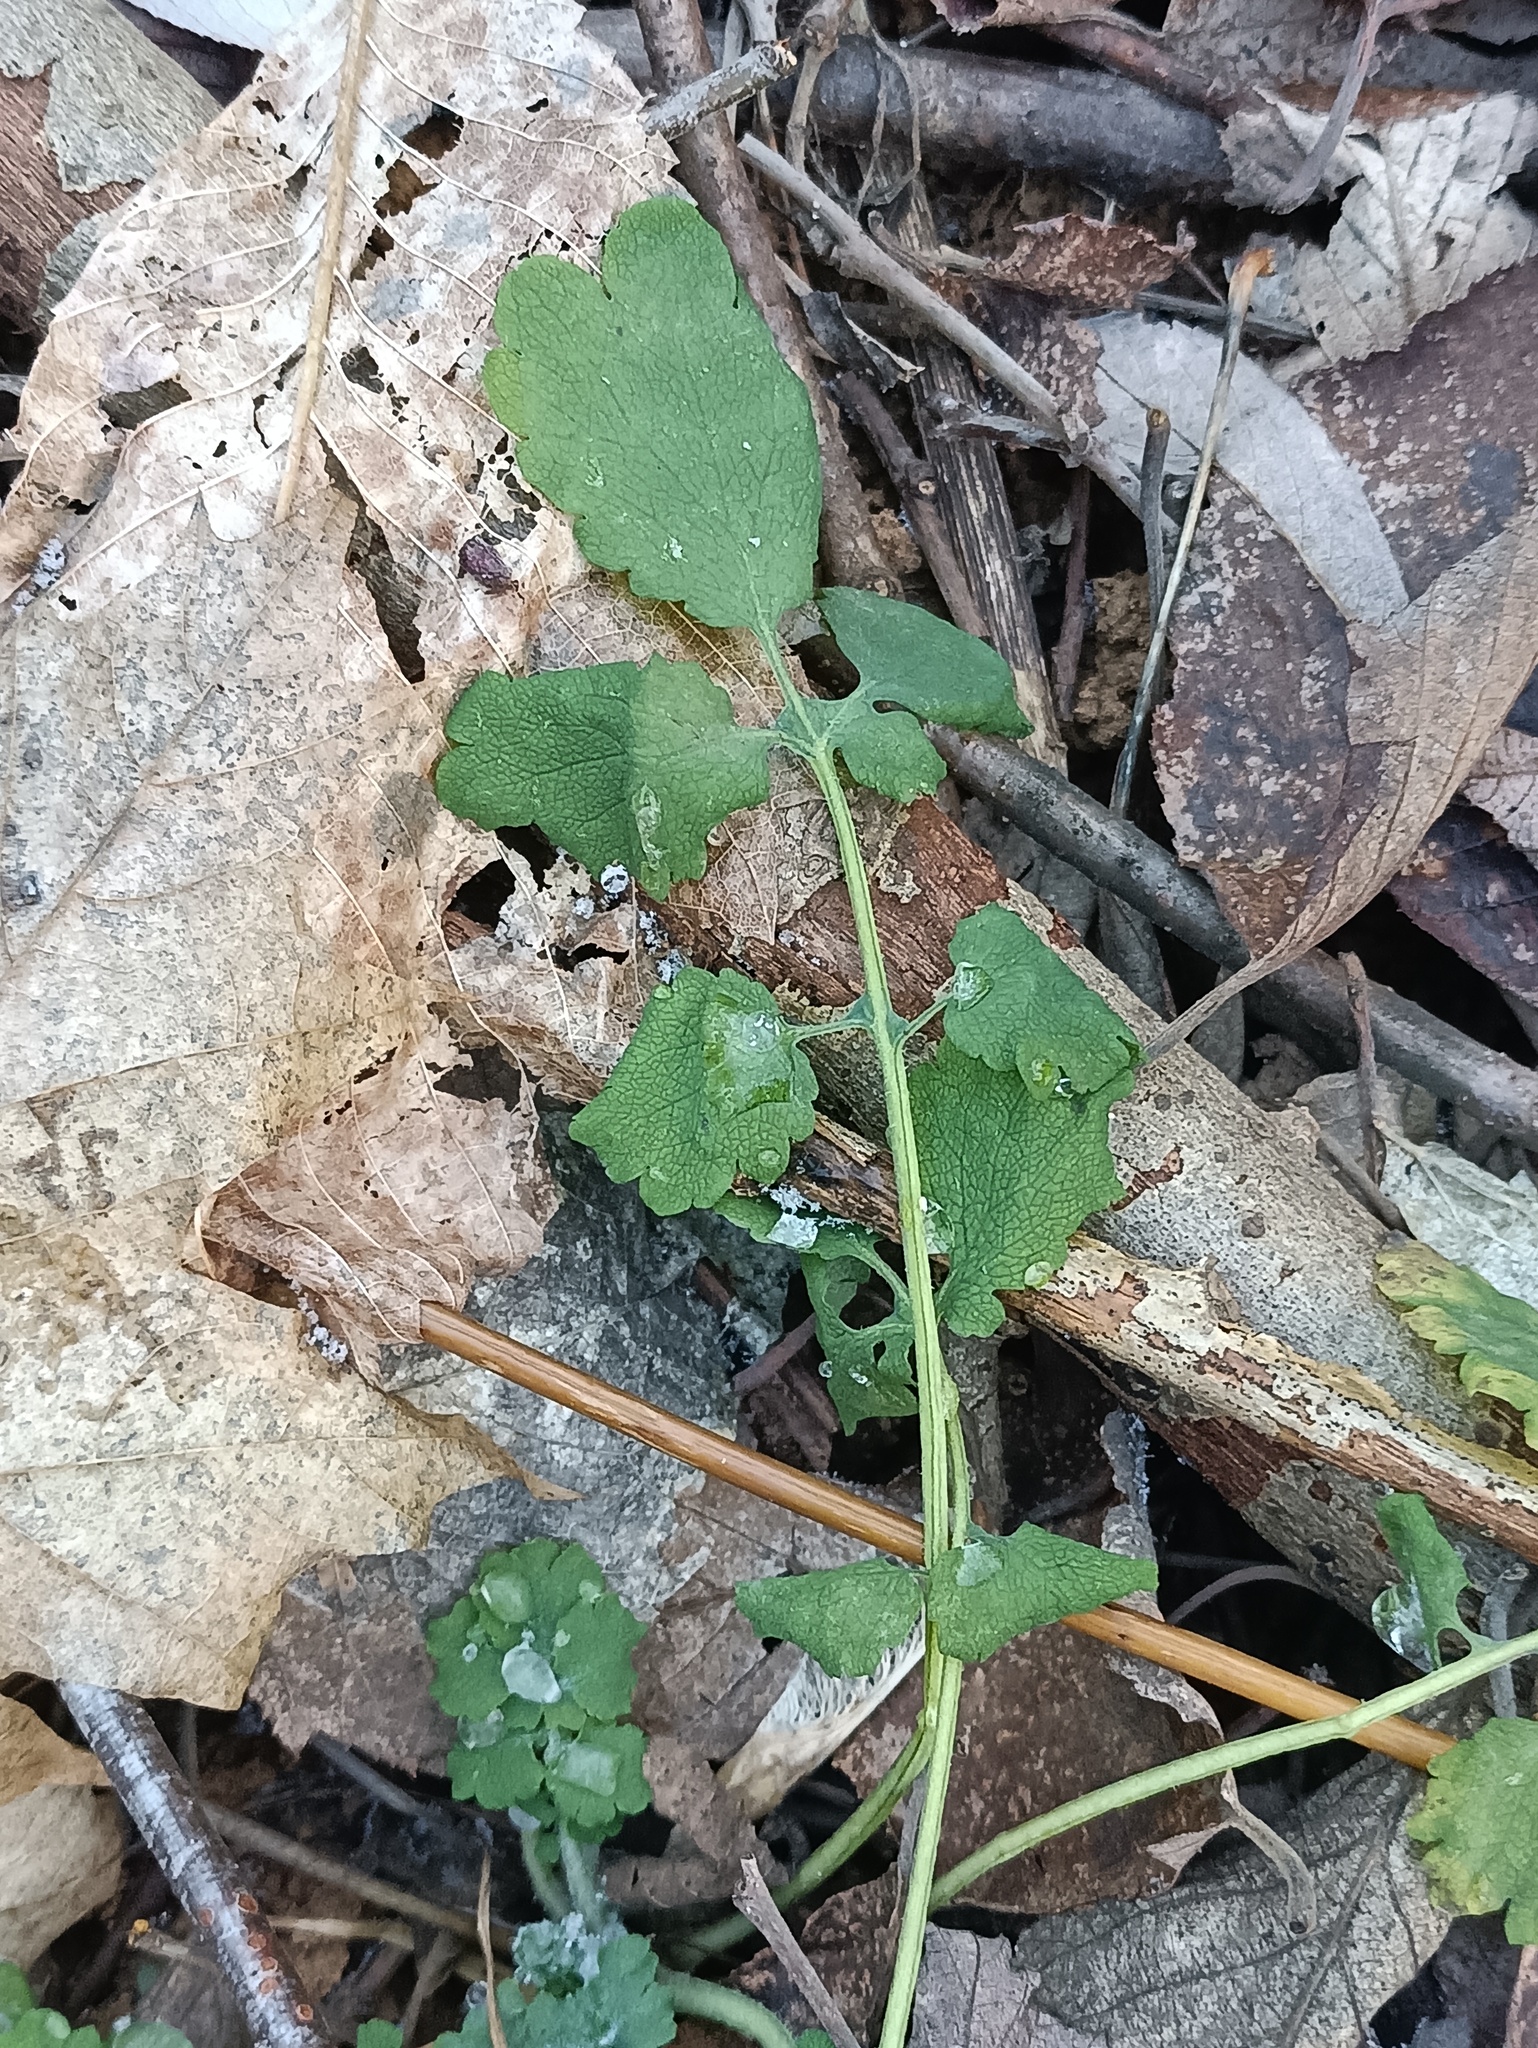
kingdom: Plantae
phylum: Tracheophyta
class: Magnoliopsida
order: Ranunculales
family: Papaveraceae
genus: Chelidonium
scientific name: Chelidonium majus
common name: Greater celandine
